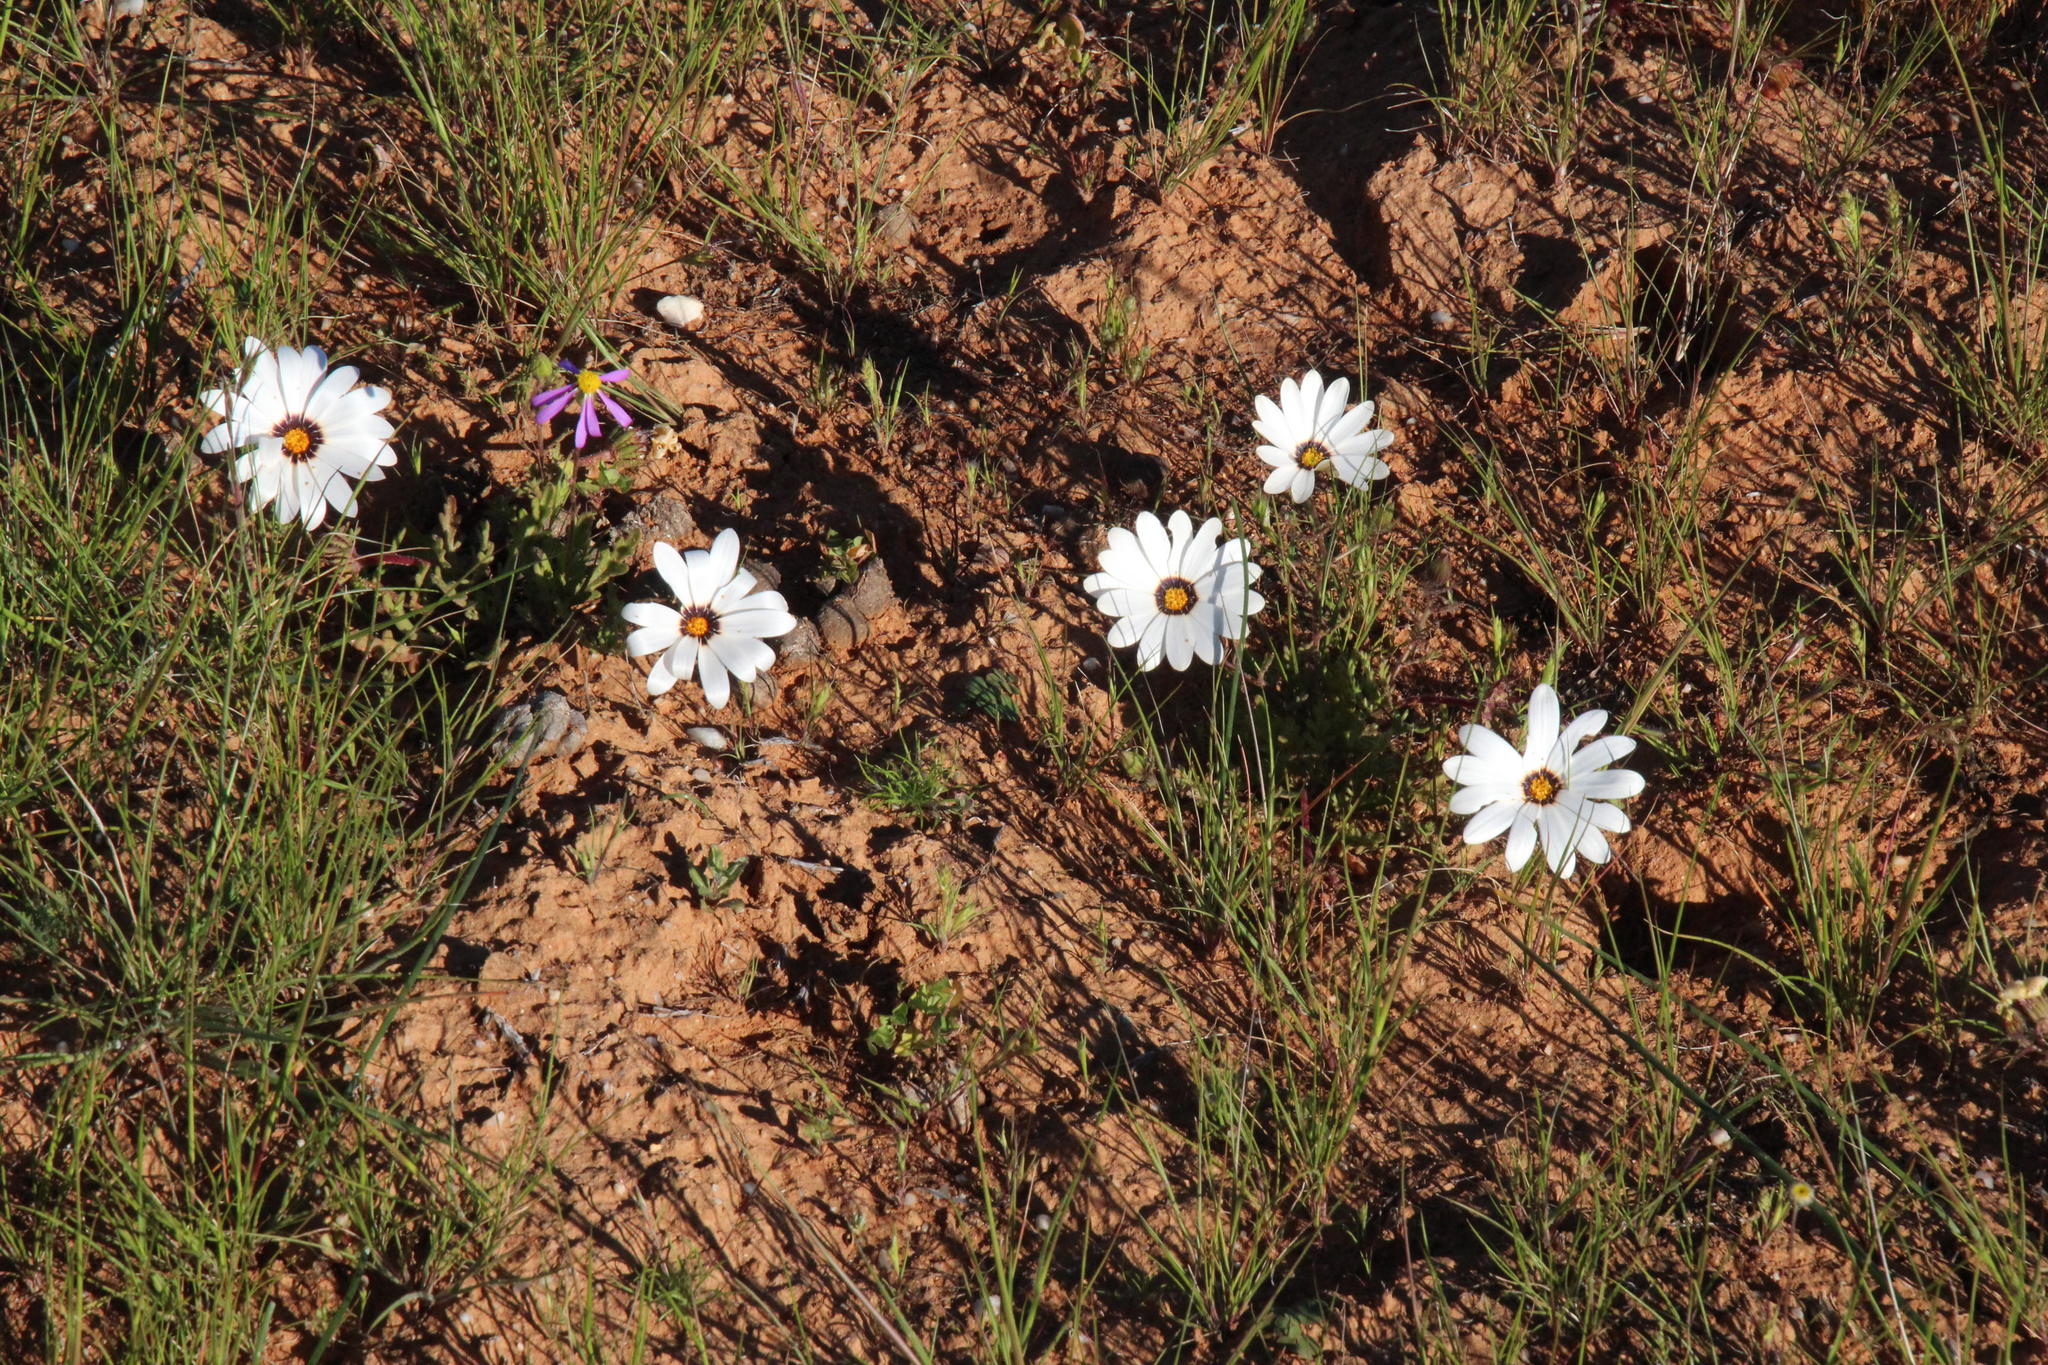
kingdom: Plantae
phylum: Tracheophyta
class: Magnoliopsida
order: Asterales
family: Asteraceae
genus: Dimorphotheca
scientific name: Dimorphotheca pinnata
